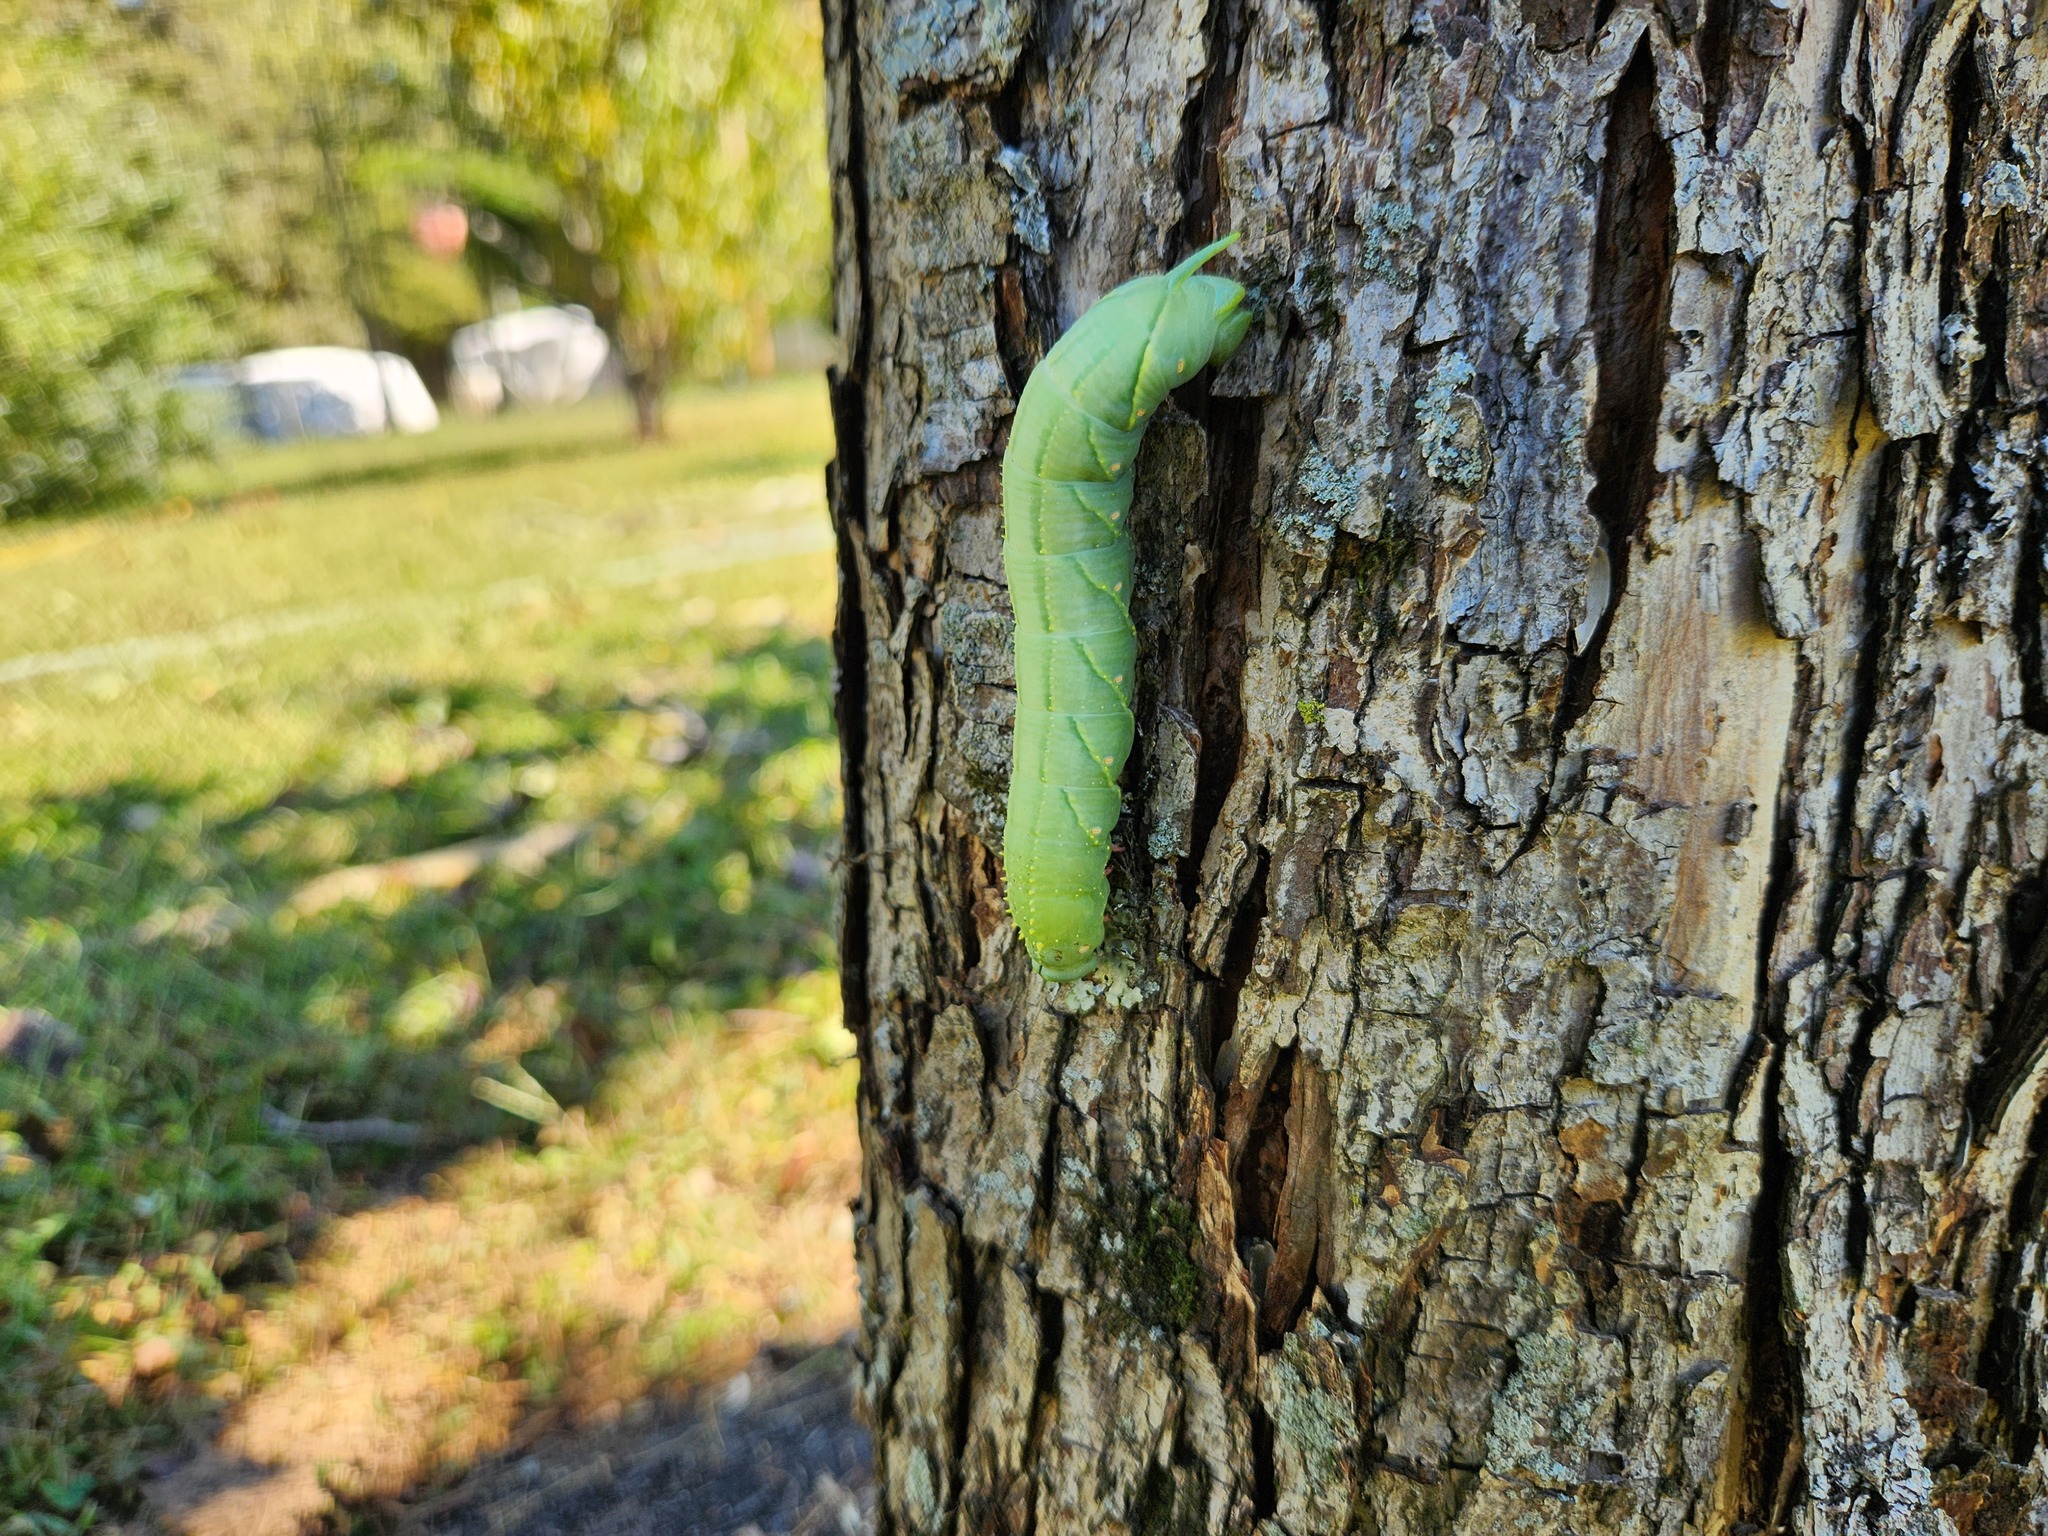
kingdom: Animalia
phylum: Arthropoda
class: Insecta
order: Lepidoptera
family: Sphingidae
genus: Sphinx
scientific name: Sphinx franckii
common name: Franck's sphinx
